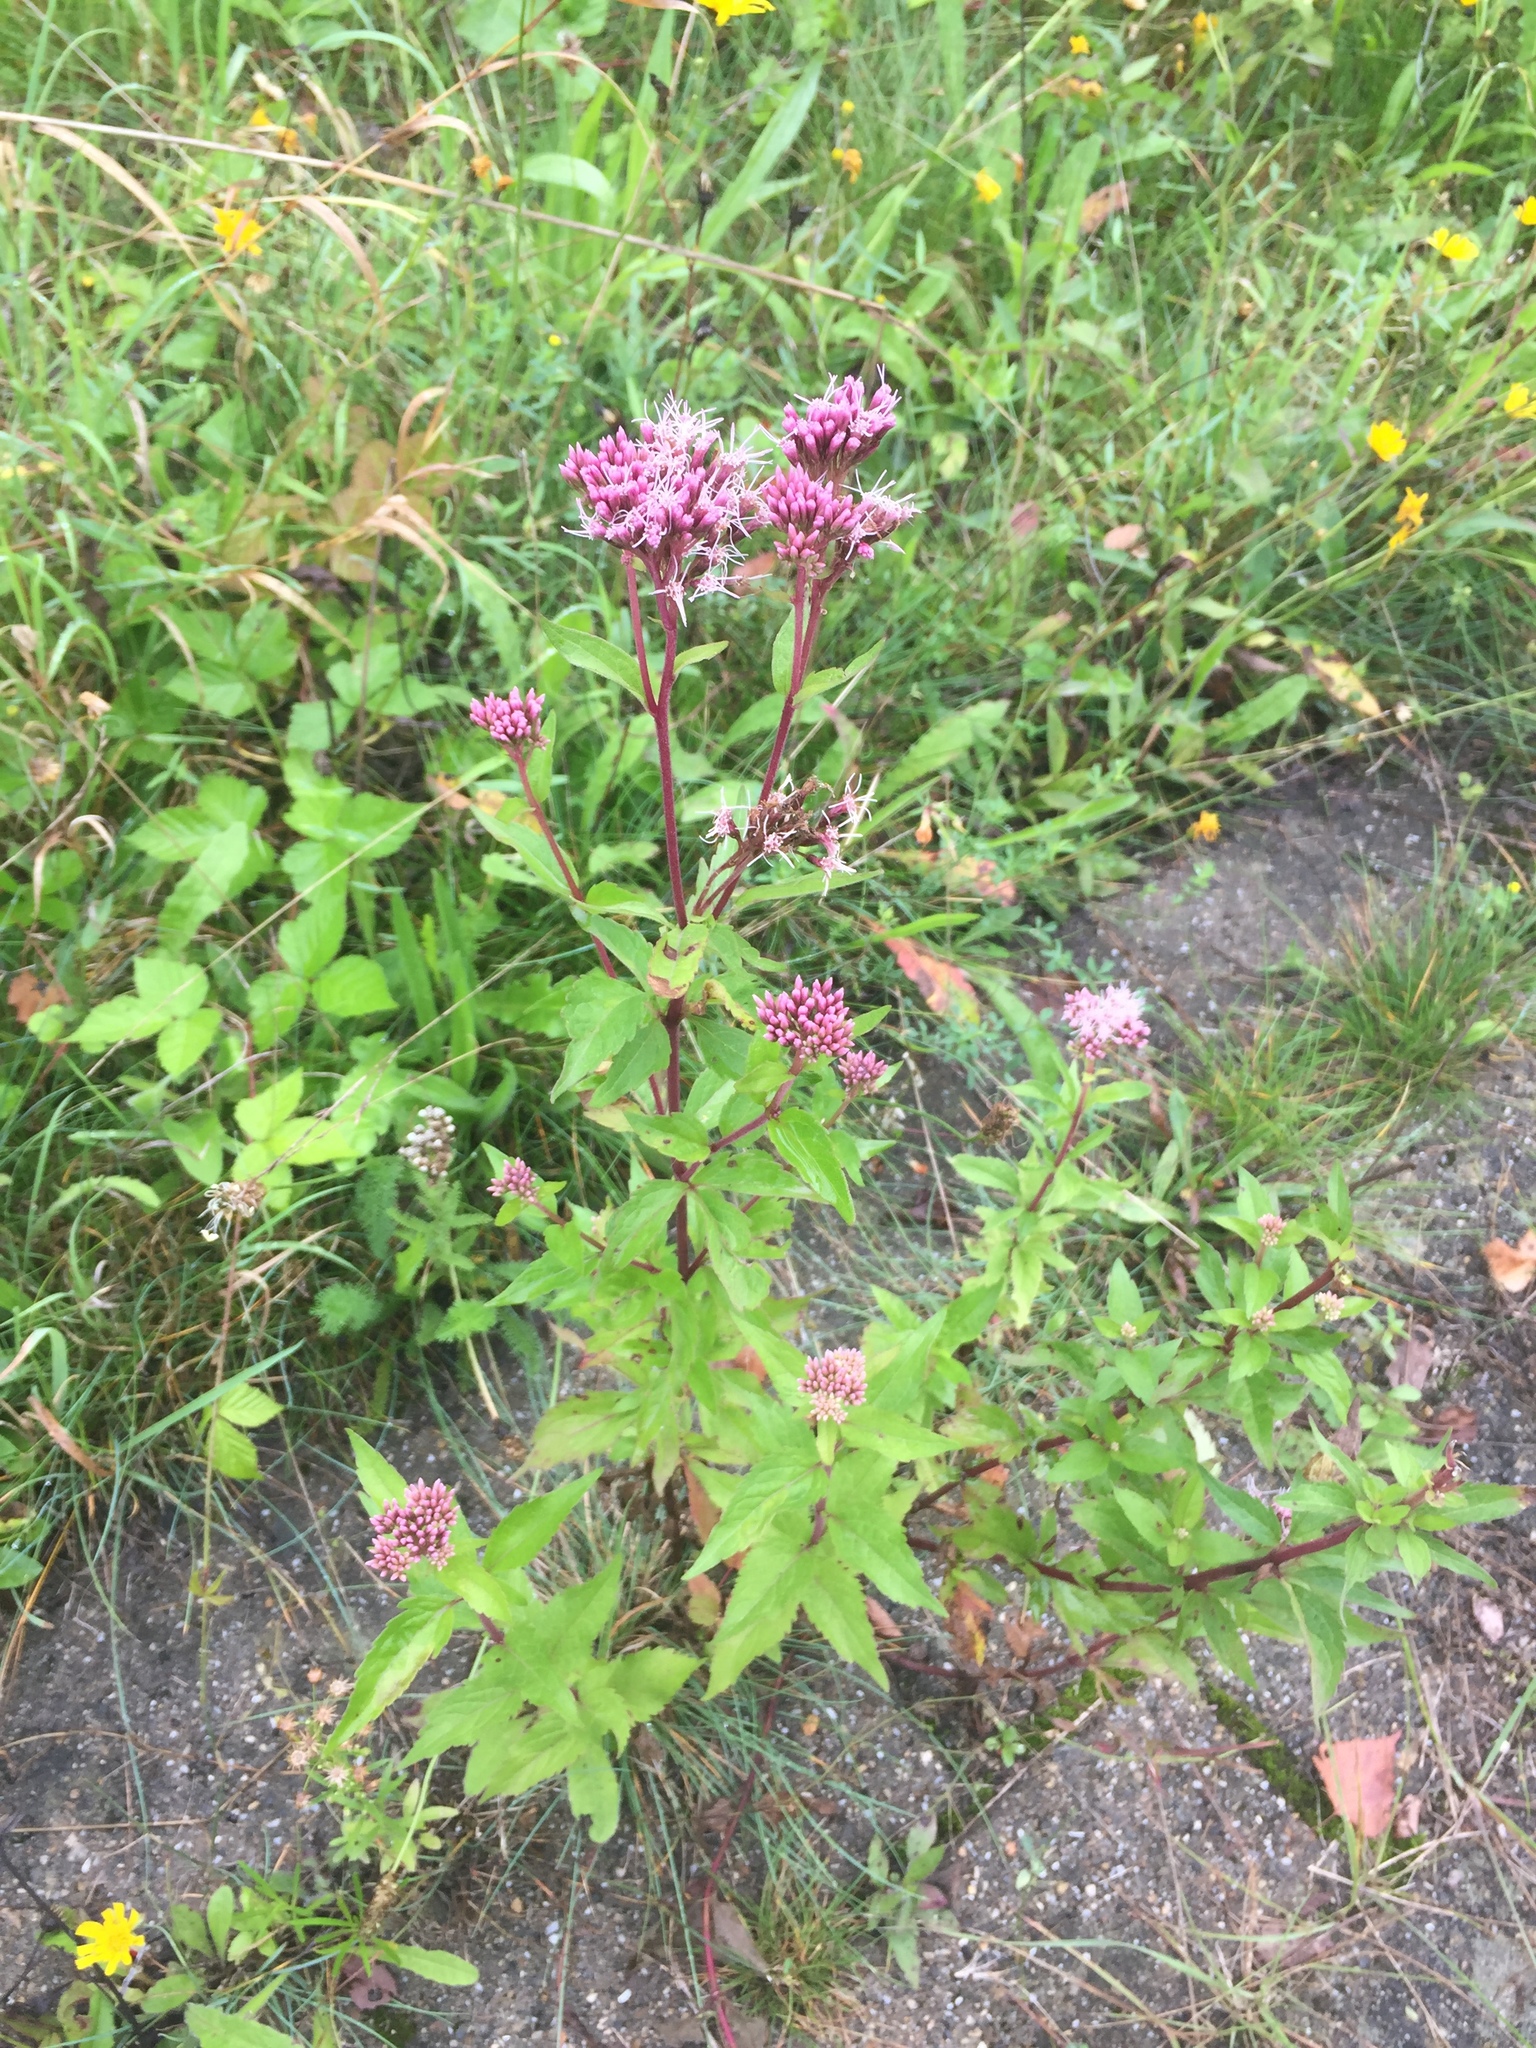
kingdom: Plantae
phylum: Tracheophyta
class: Magnoliopsida
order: Asterales
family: Asteraceae
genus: Eupatorium
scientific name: Eupatorium cannabinum
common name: Hemp-agrimony
